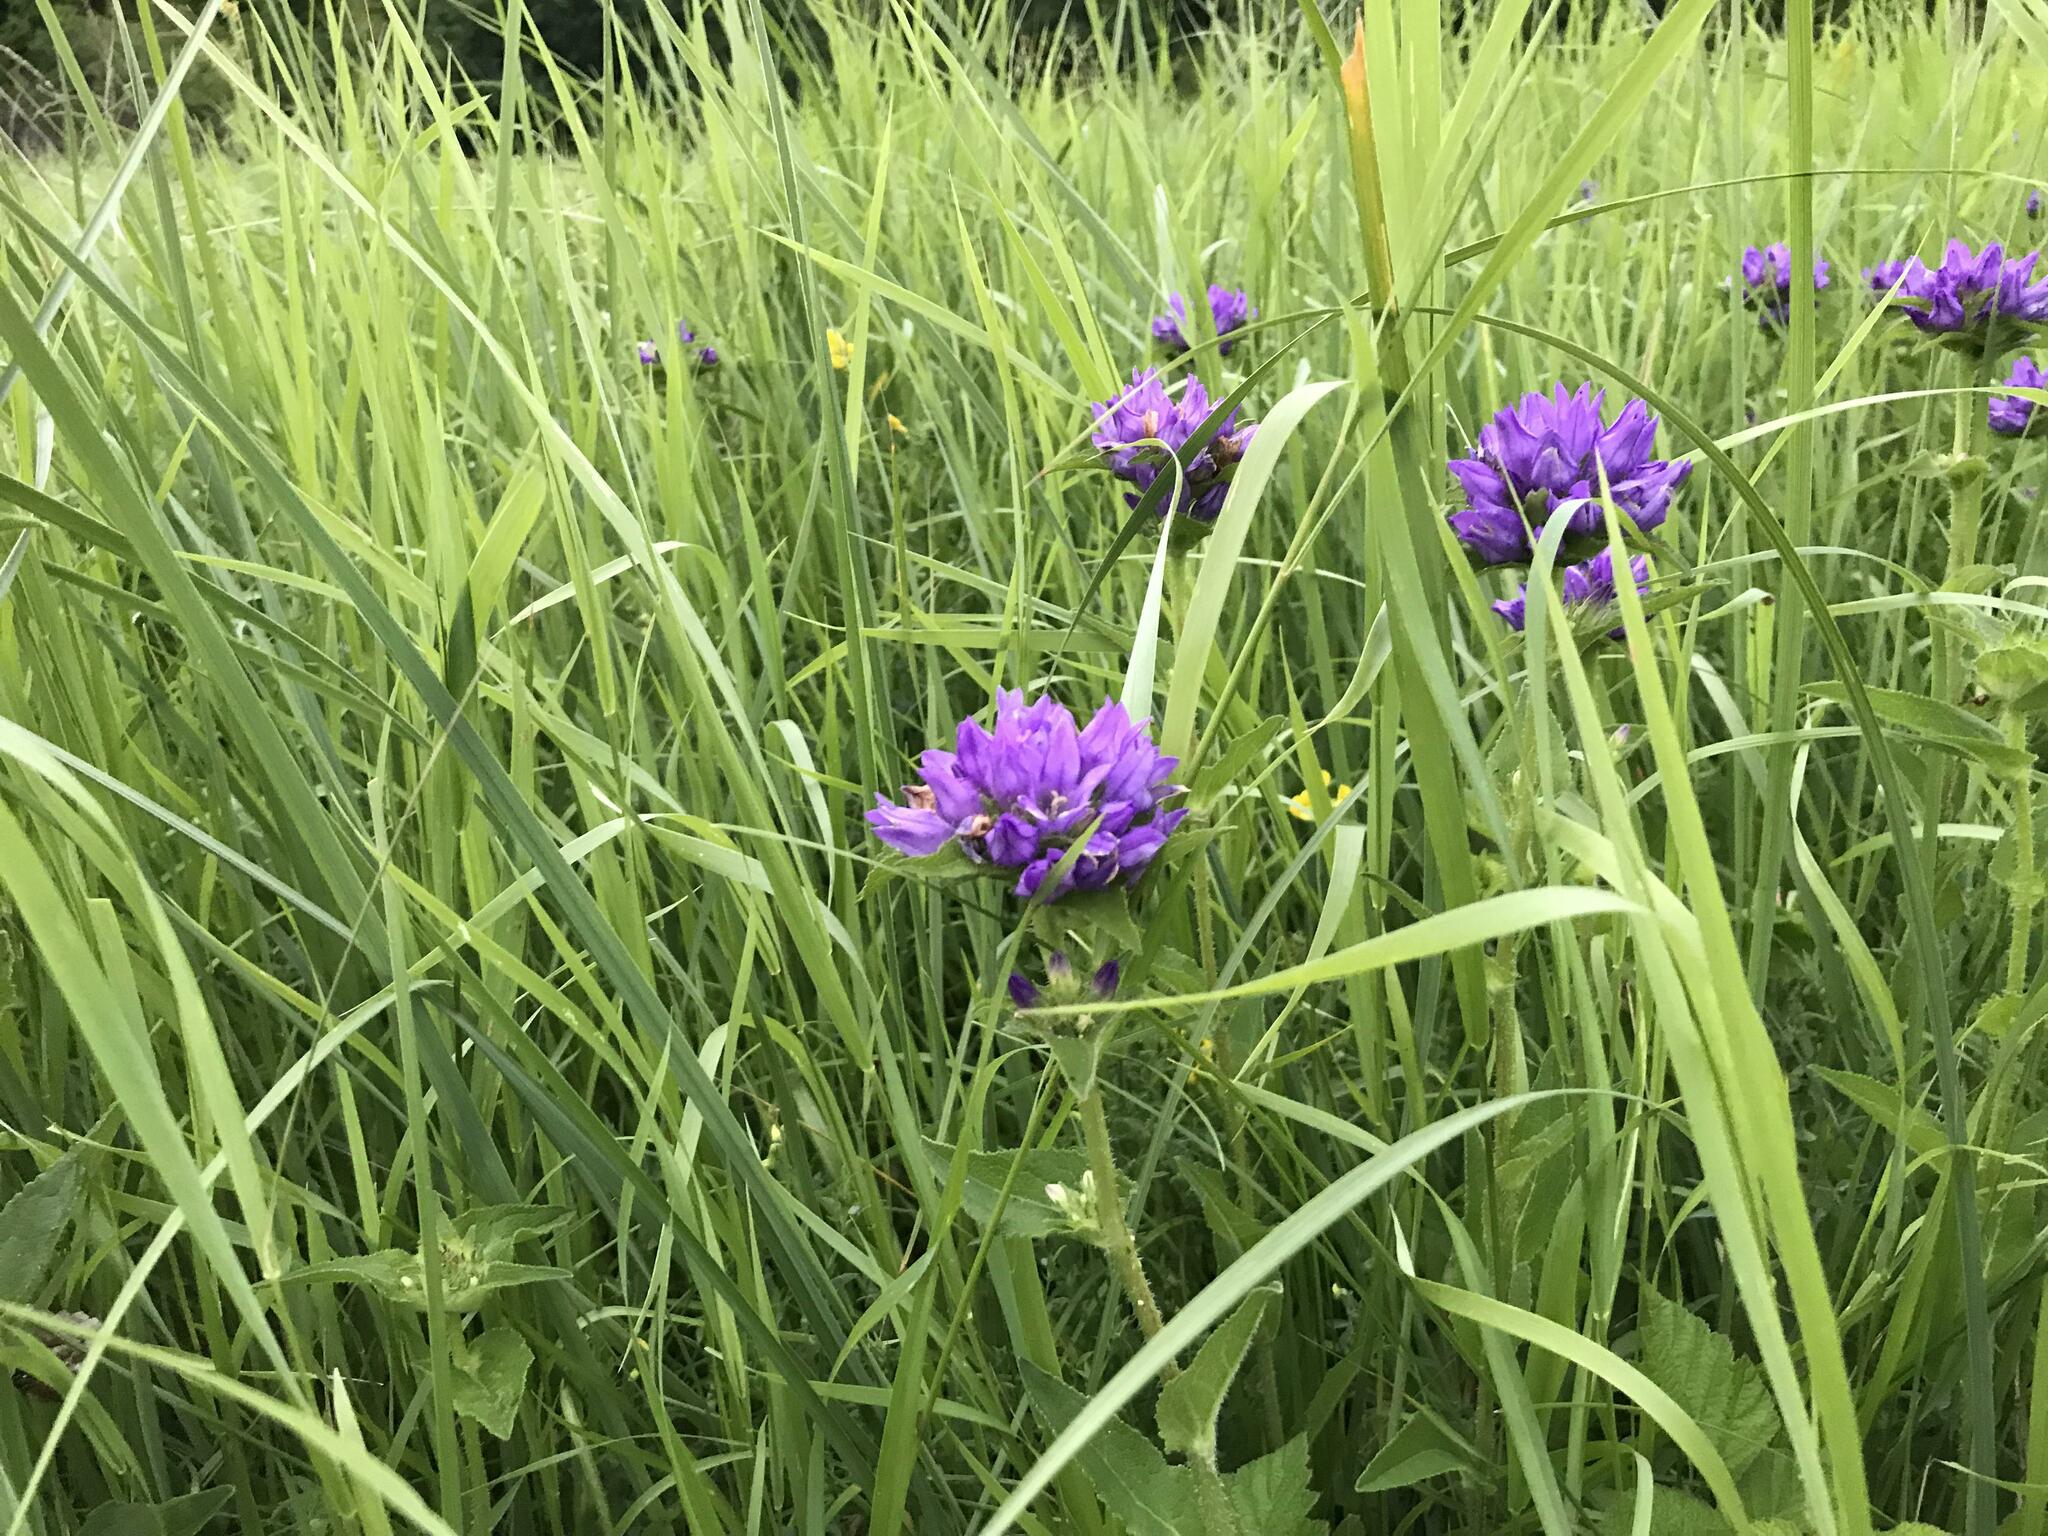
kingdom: Plantae
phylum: Tracheophyta
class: Magnoliopsida
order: Asterales
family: Campanulaceae
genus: Campanula
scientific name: Campanula glomerata
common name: Clustered bellflower
